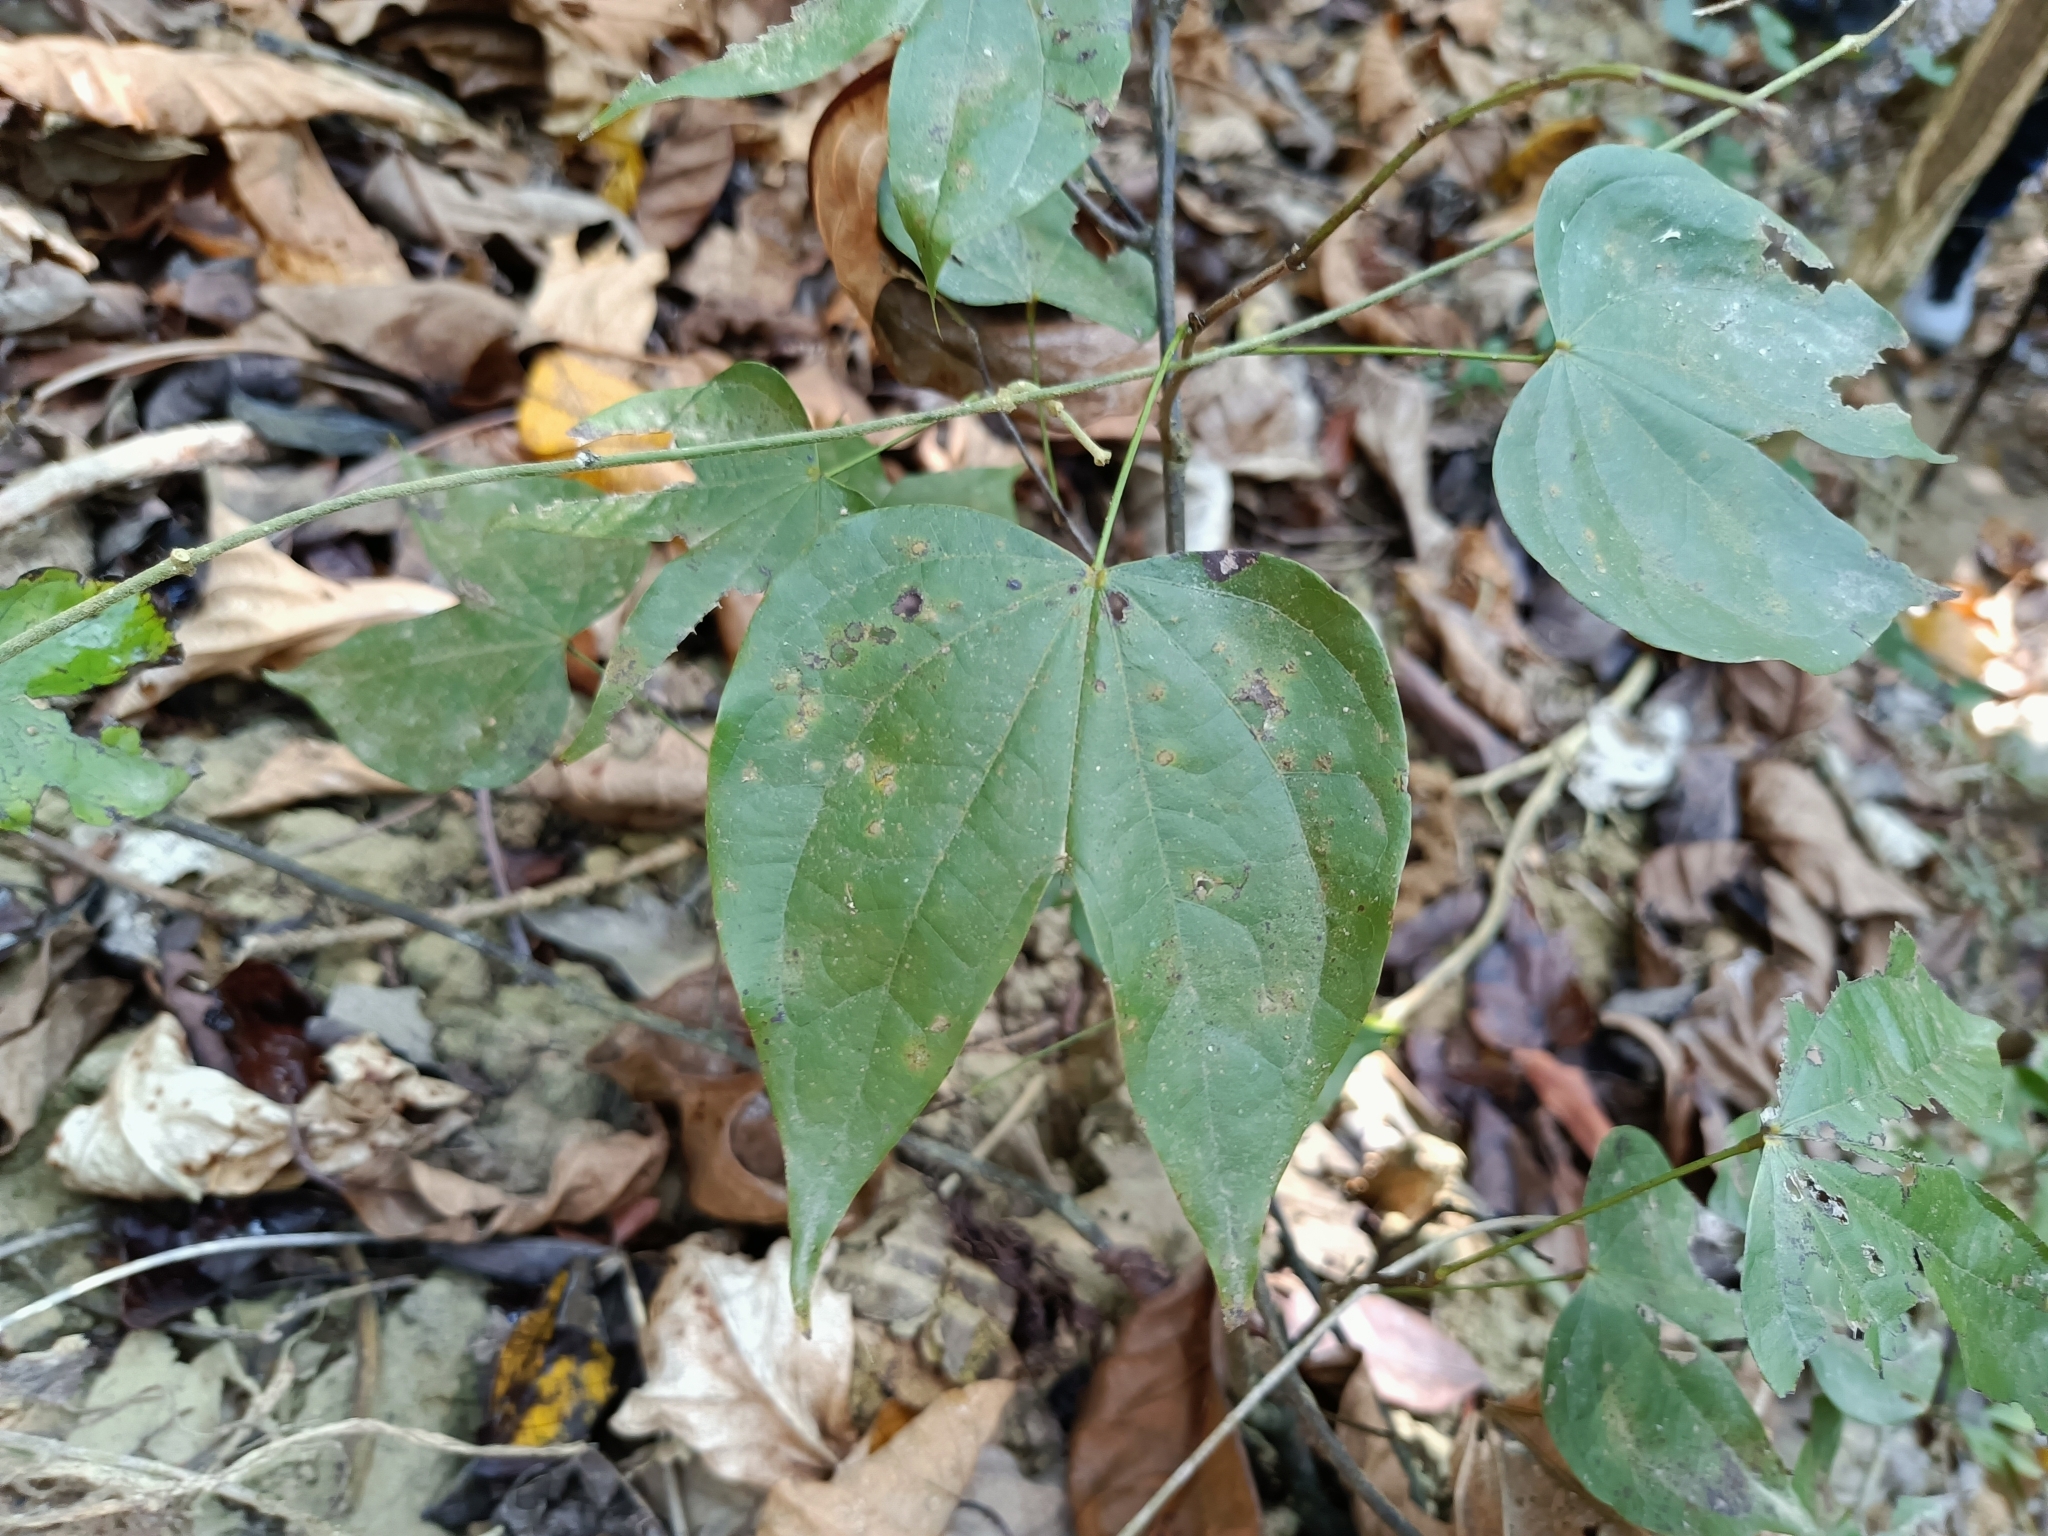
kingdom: Plantae
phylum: Tracheophyta
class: Magnoliopsida
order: Fabales
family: Fabaceae
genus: Phanera
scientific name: Phanera championii
